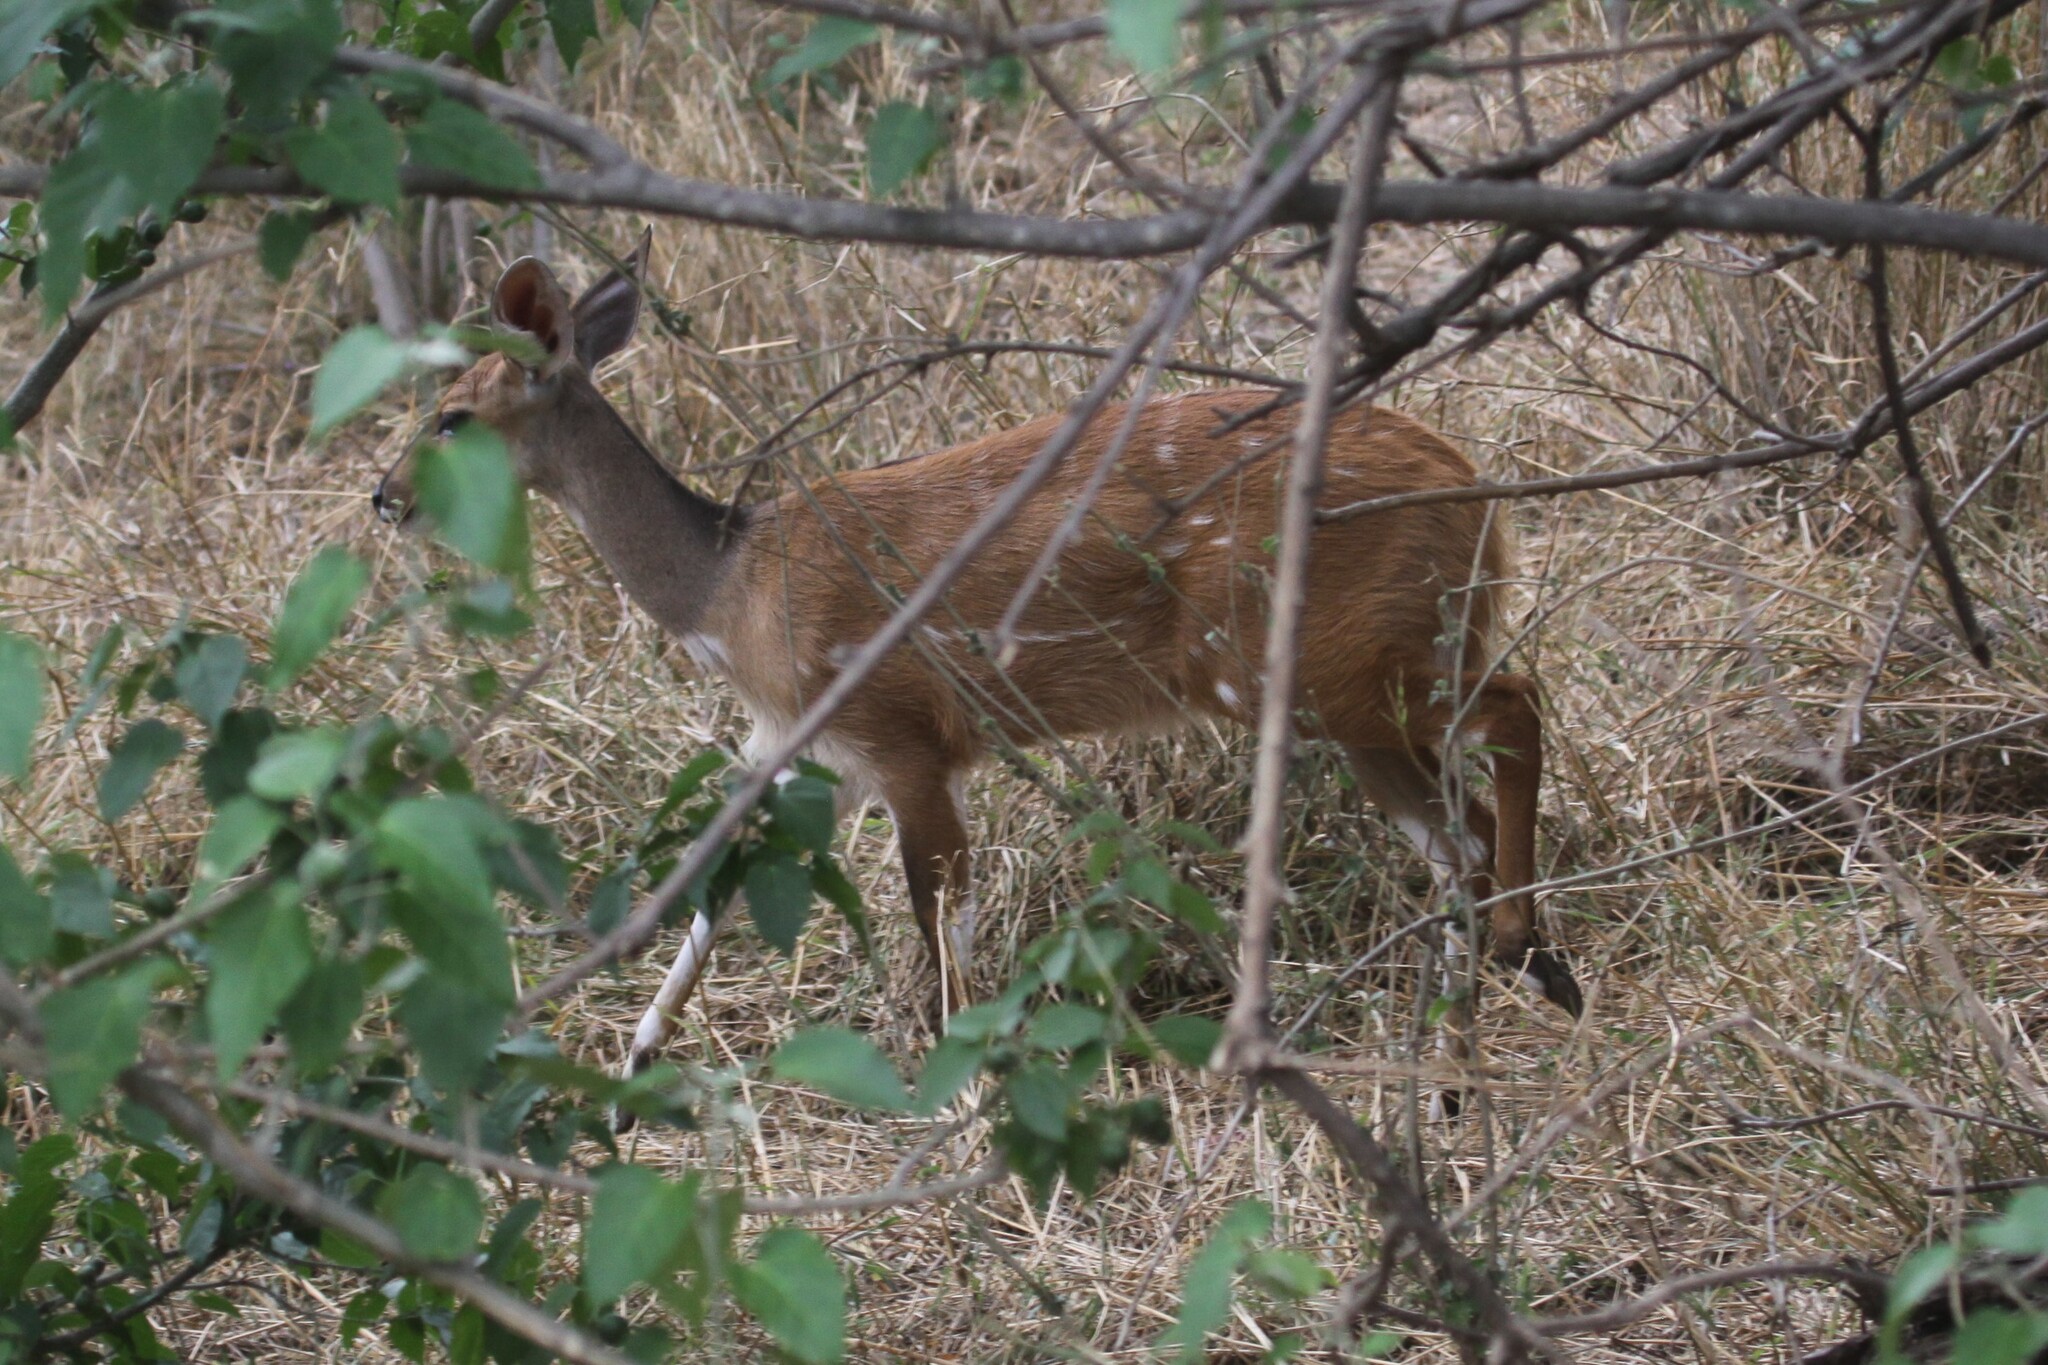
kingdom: Animalia
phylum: Chordata
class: Mammalia
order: Artiodactyla
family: Bovidae
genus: Tragelaphus
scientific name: Tragelaphus scriptus
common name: Bushbuck
